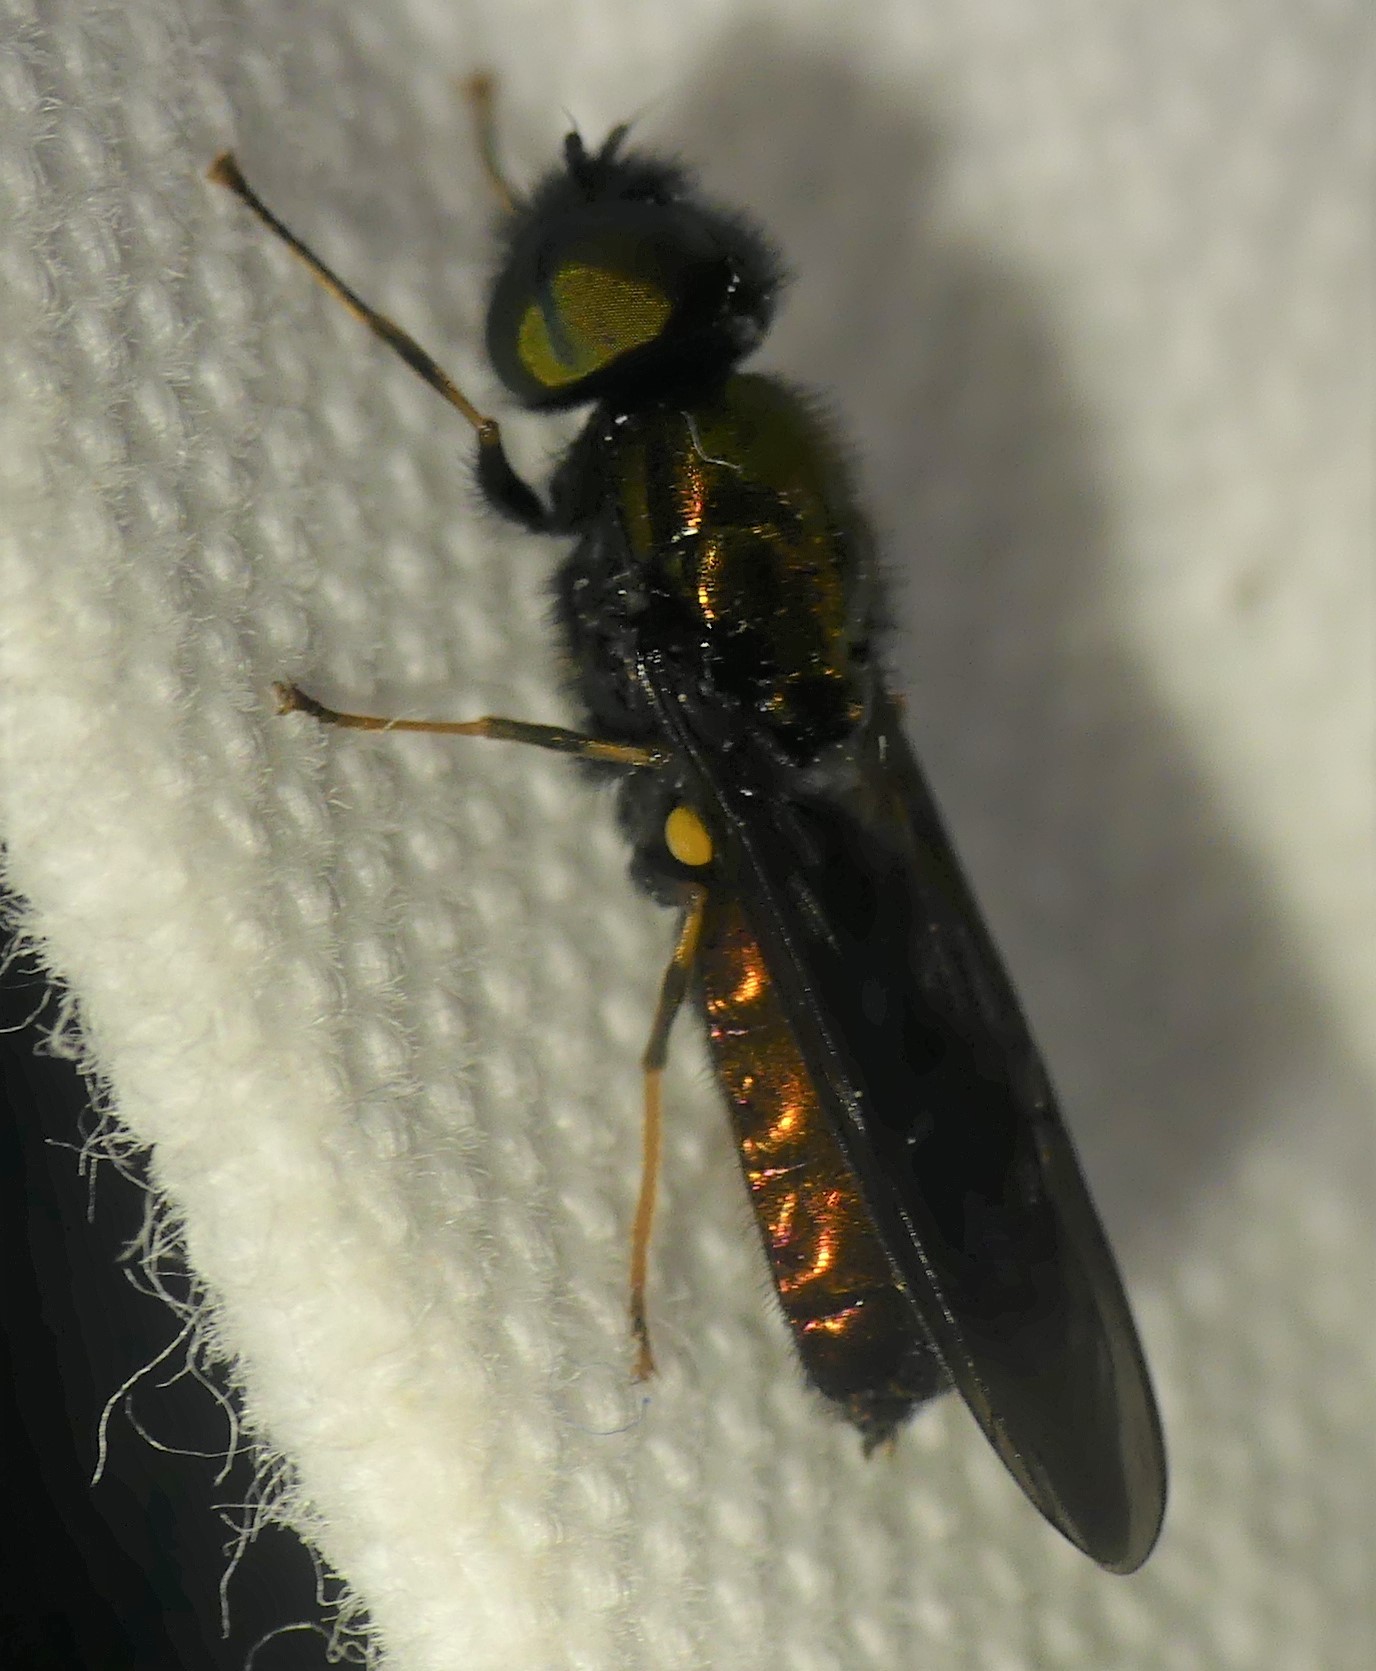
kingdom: Animalia
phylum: Arthropoda
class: Insecta
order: Diptera
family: Stratiomyidae
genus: Chloromyia
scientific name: Chloromyia speciosa
